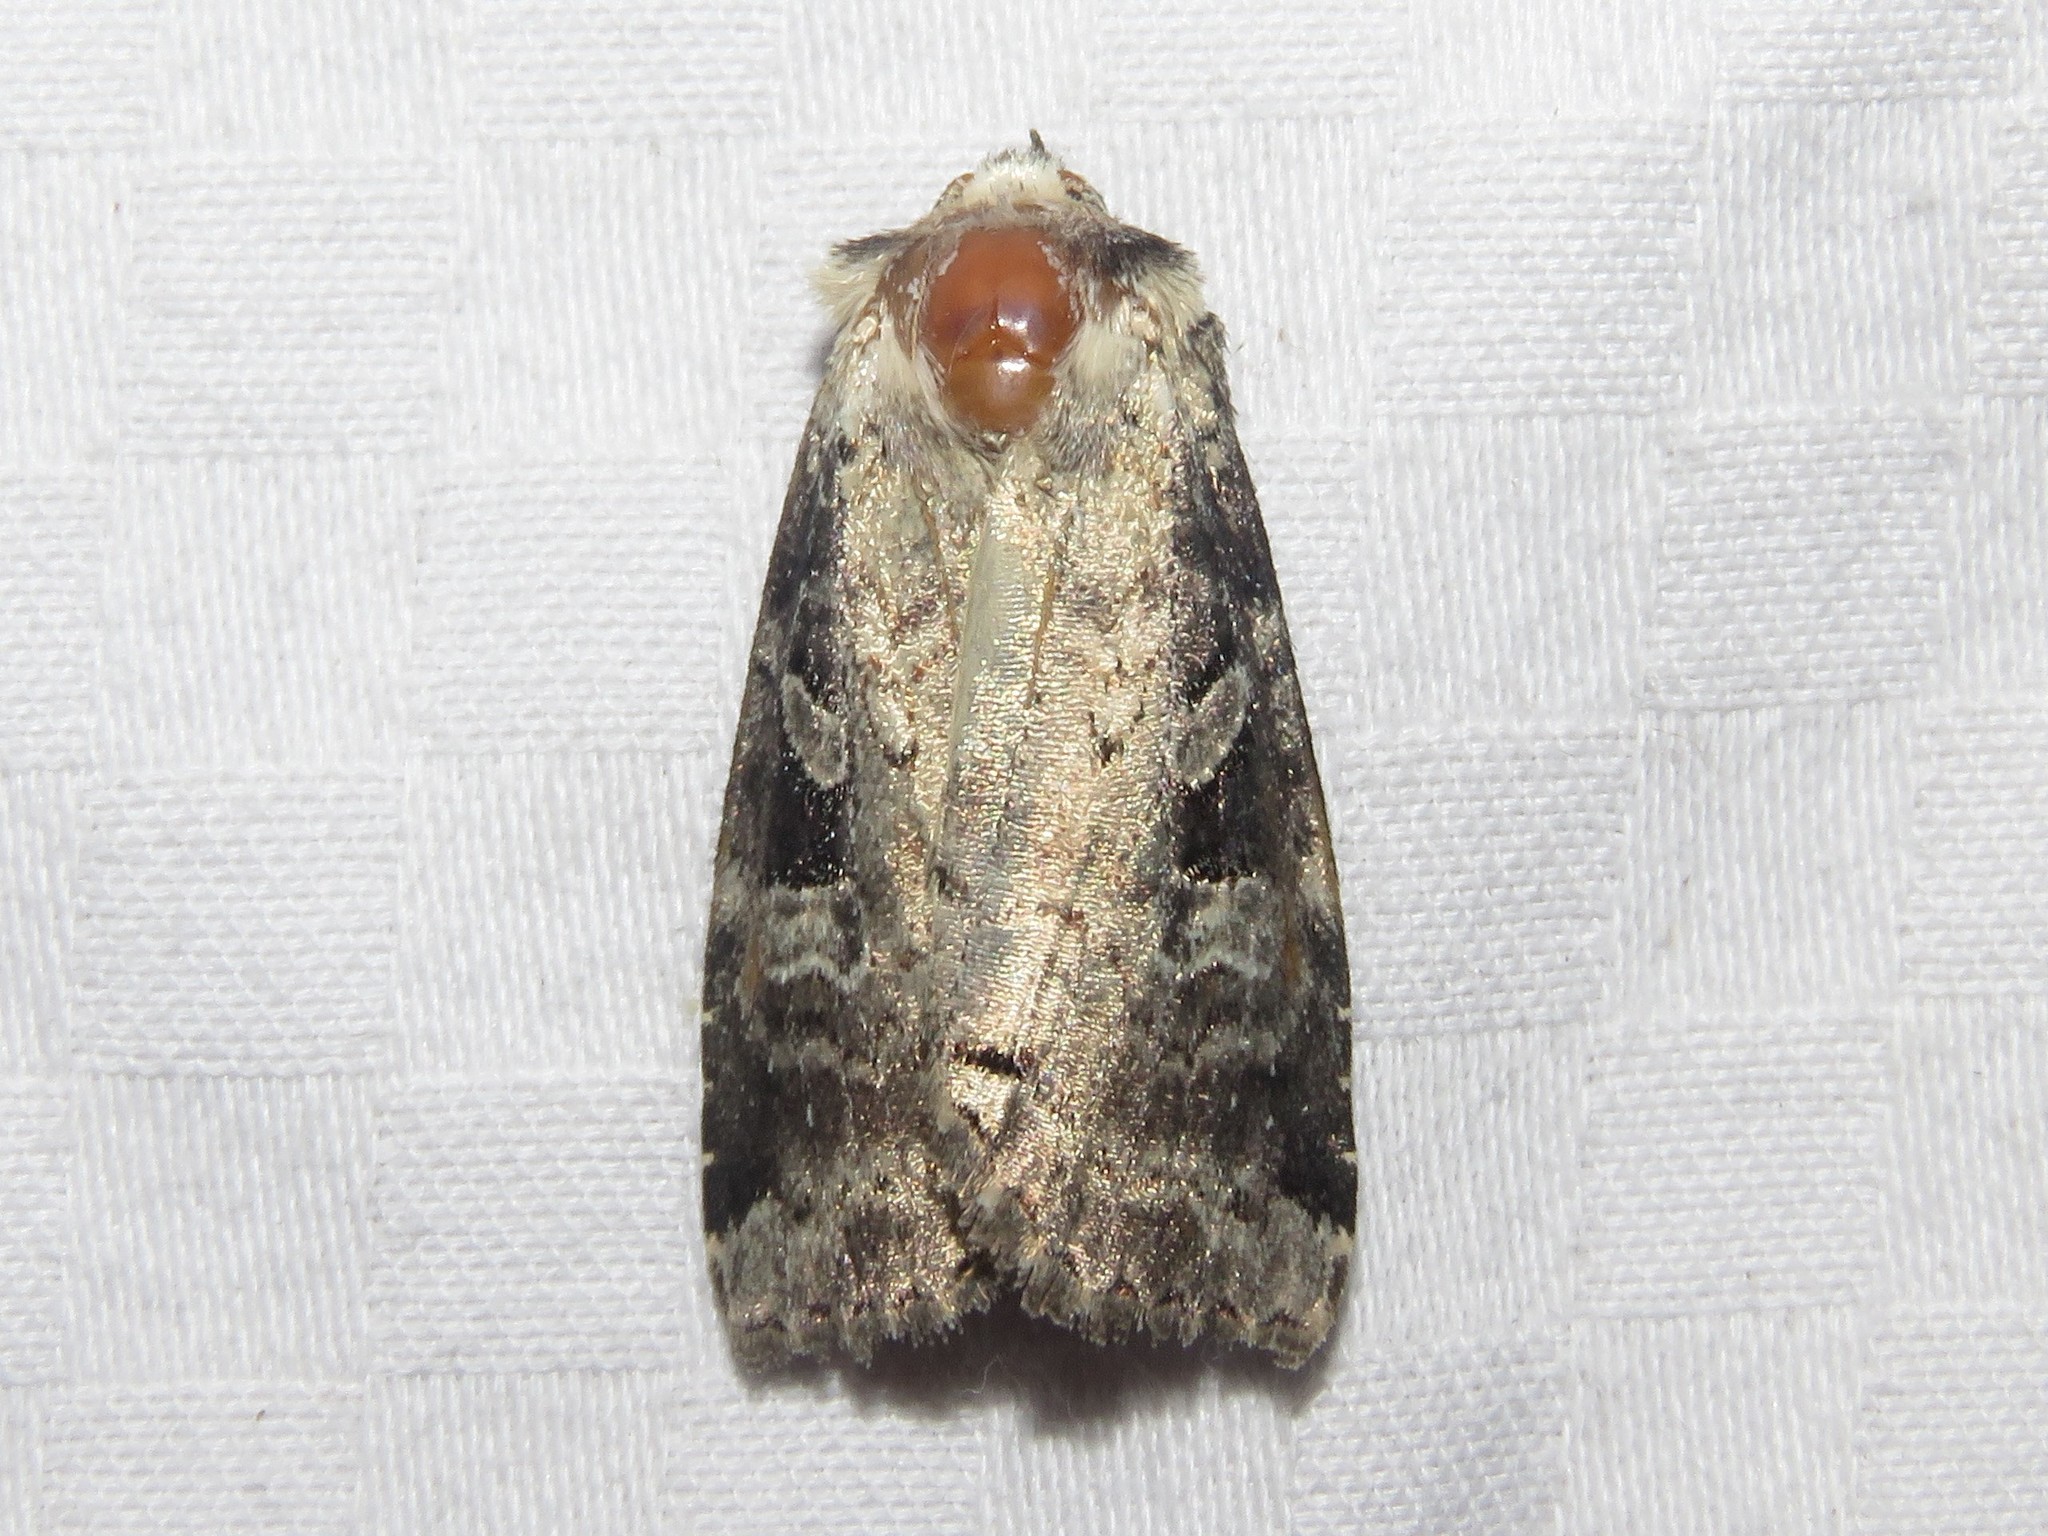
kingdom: Animalia
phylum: Arthropoda
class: Insecta
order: Lepidoptera
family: Noctuidae
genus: Hillia
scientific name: Hillia iris
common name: Iris rover moth
